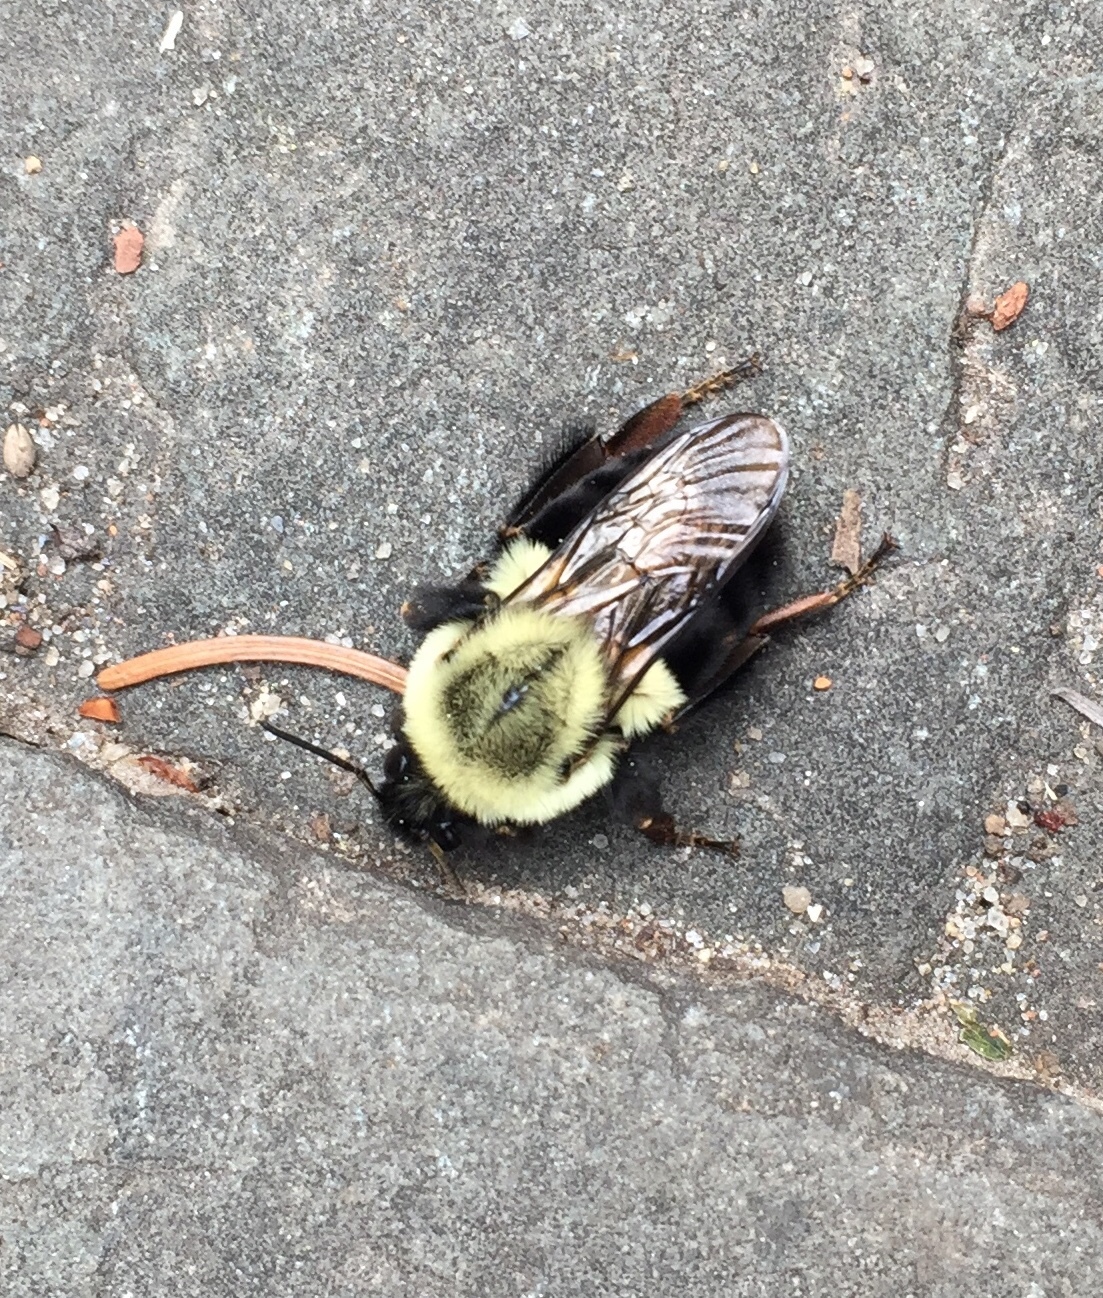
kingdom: Animalia
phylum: Arthropoda
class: Insecta
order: Hymenoptera
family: Apidae
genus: Bombus
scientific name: Bombus impatiens
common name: Common eastern bumble bee
